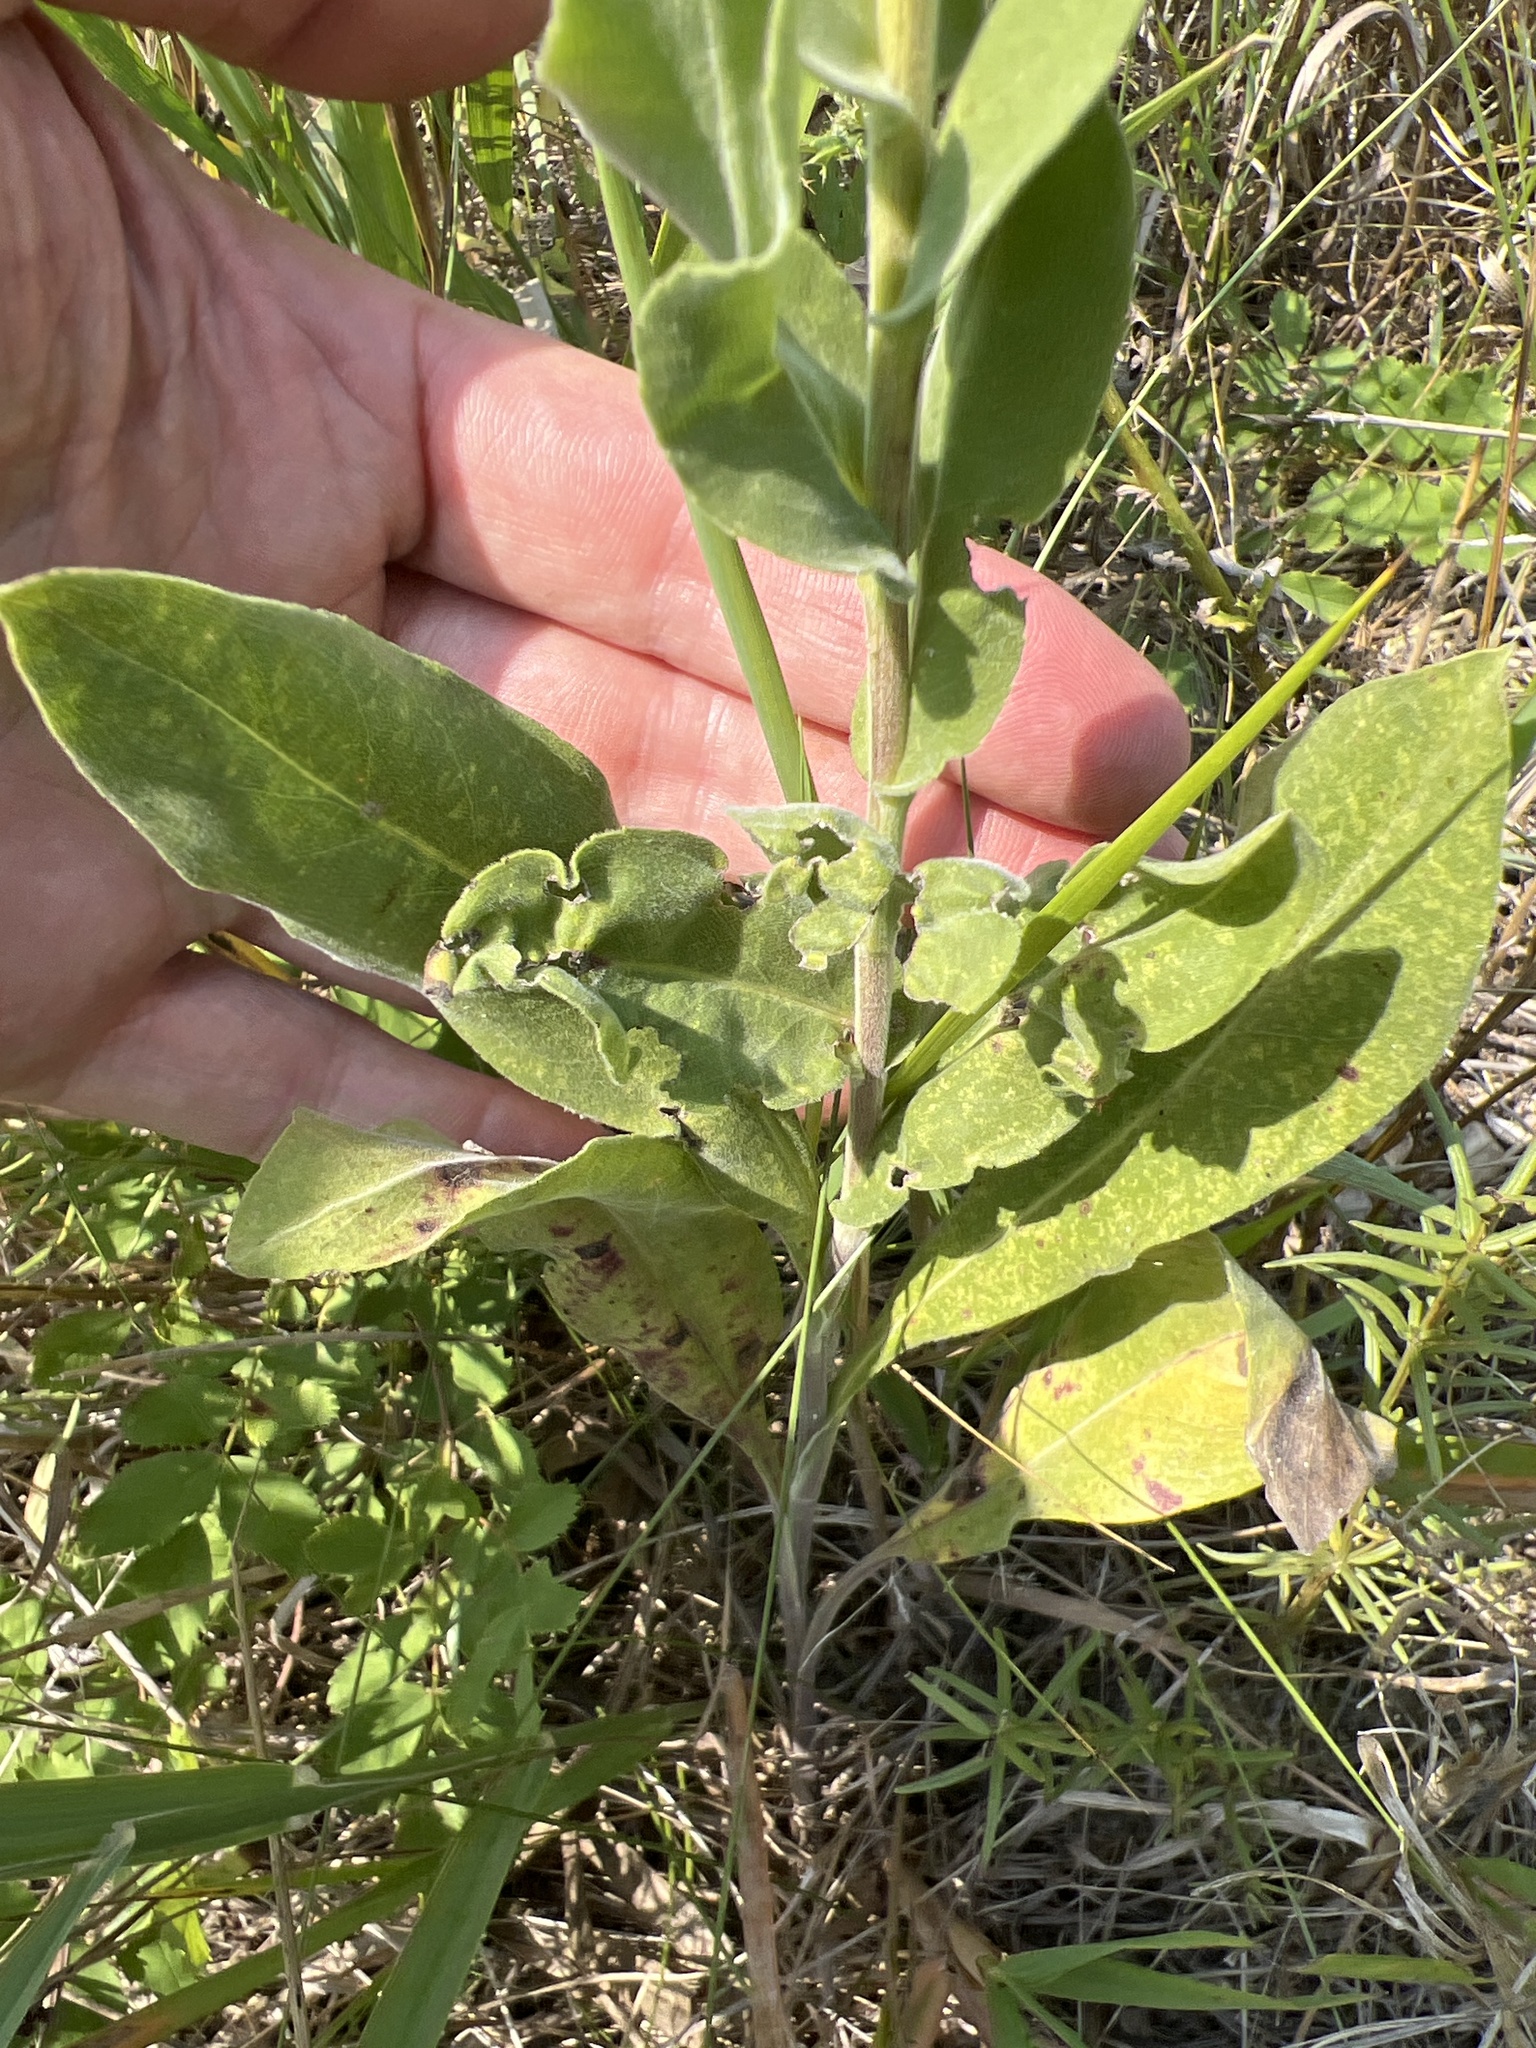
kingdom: Plantae
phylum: Tracheophyta
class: Magnoliopsida
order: Asterales
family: Asteraceae
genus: Solidago
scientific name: Solidago rigida
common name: Rigid goldenrod
